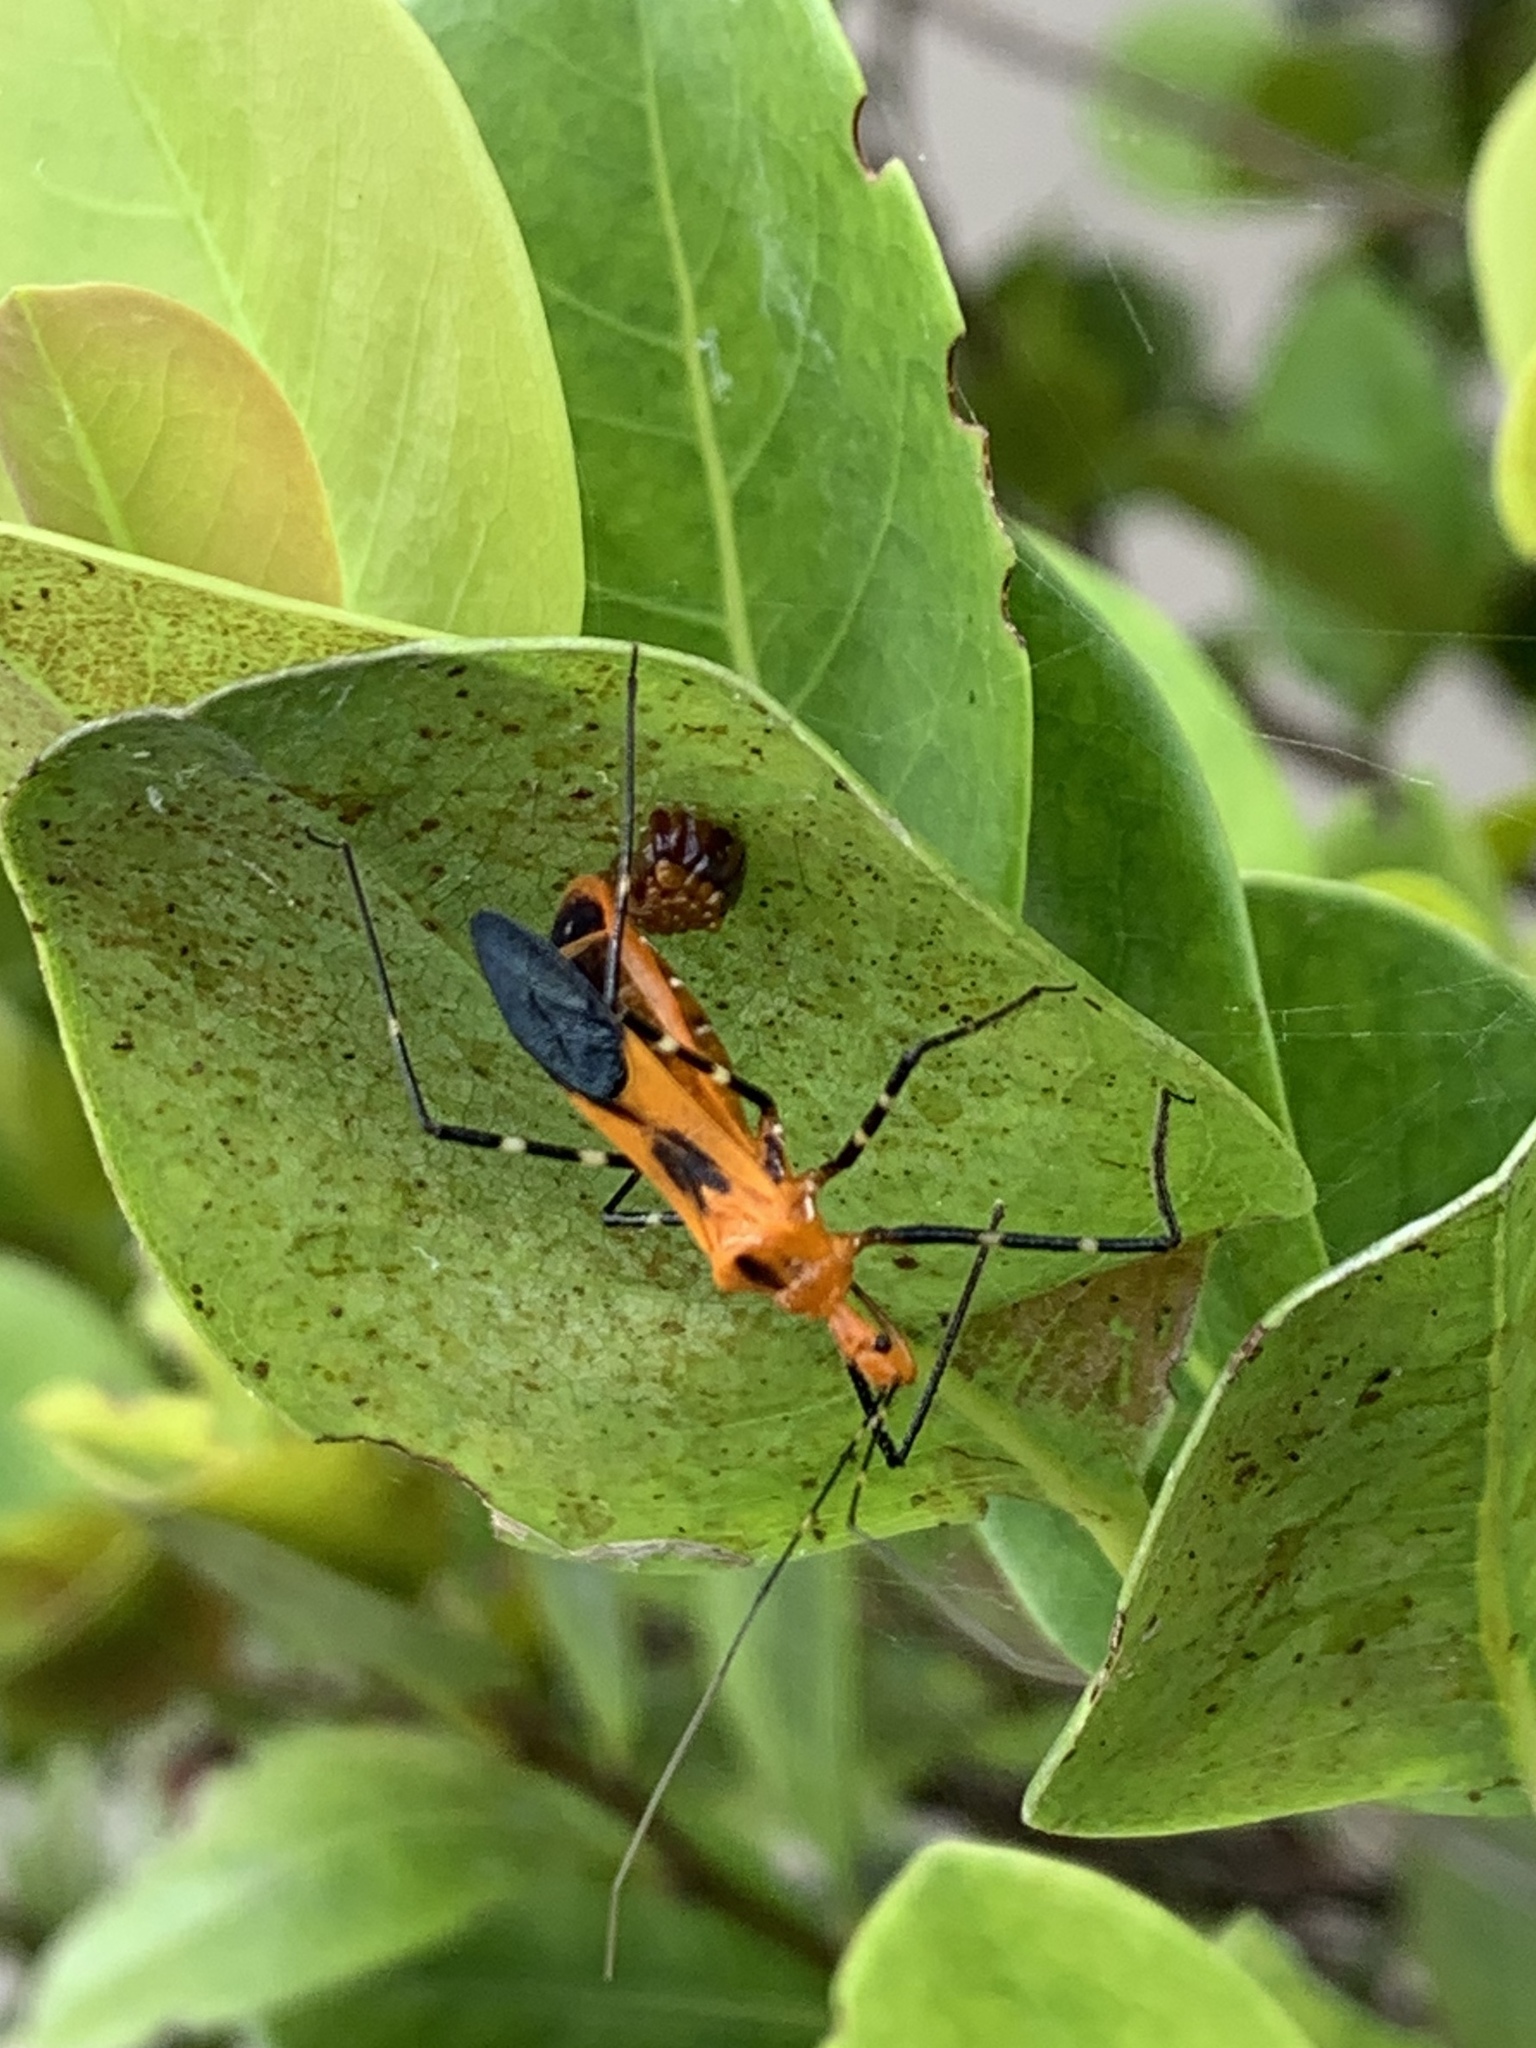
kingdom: Animalia
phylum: Arthropoda
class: Insecta
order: Hemiptera
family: Reduviidae
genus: Zelus
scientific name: Zelus longipes
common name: Milkweed assassin bug
